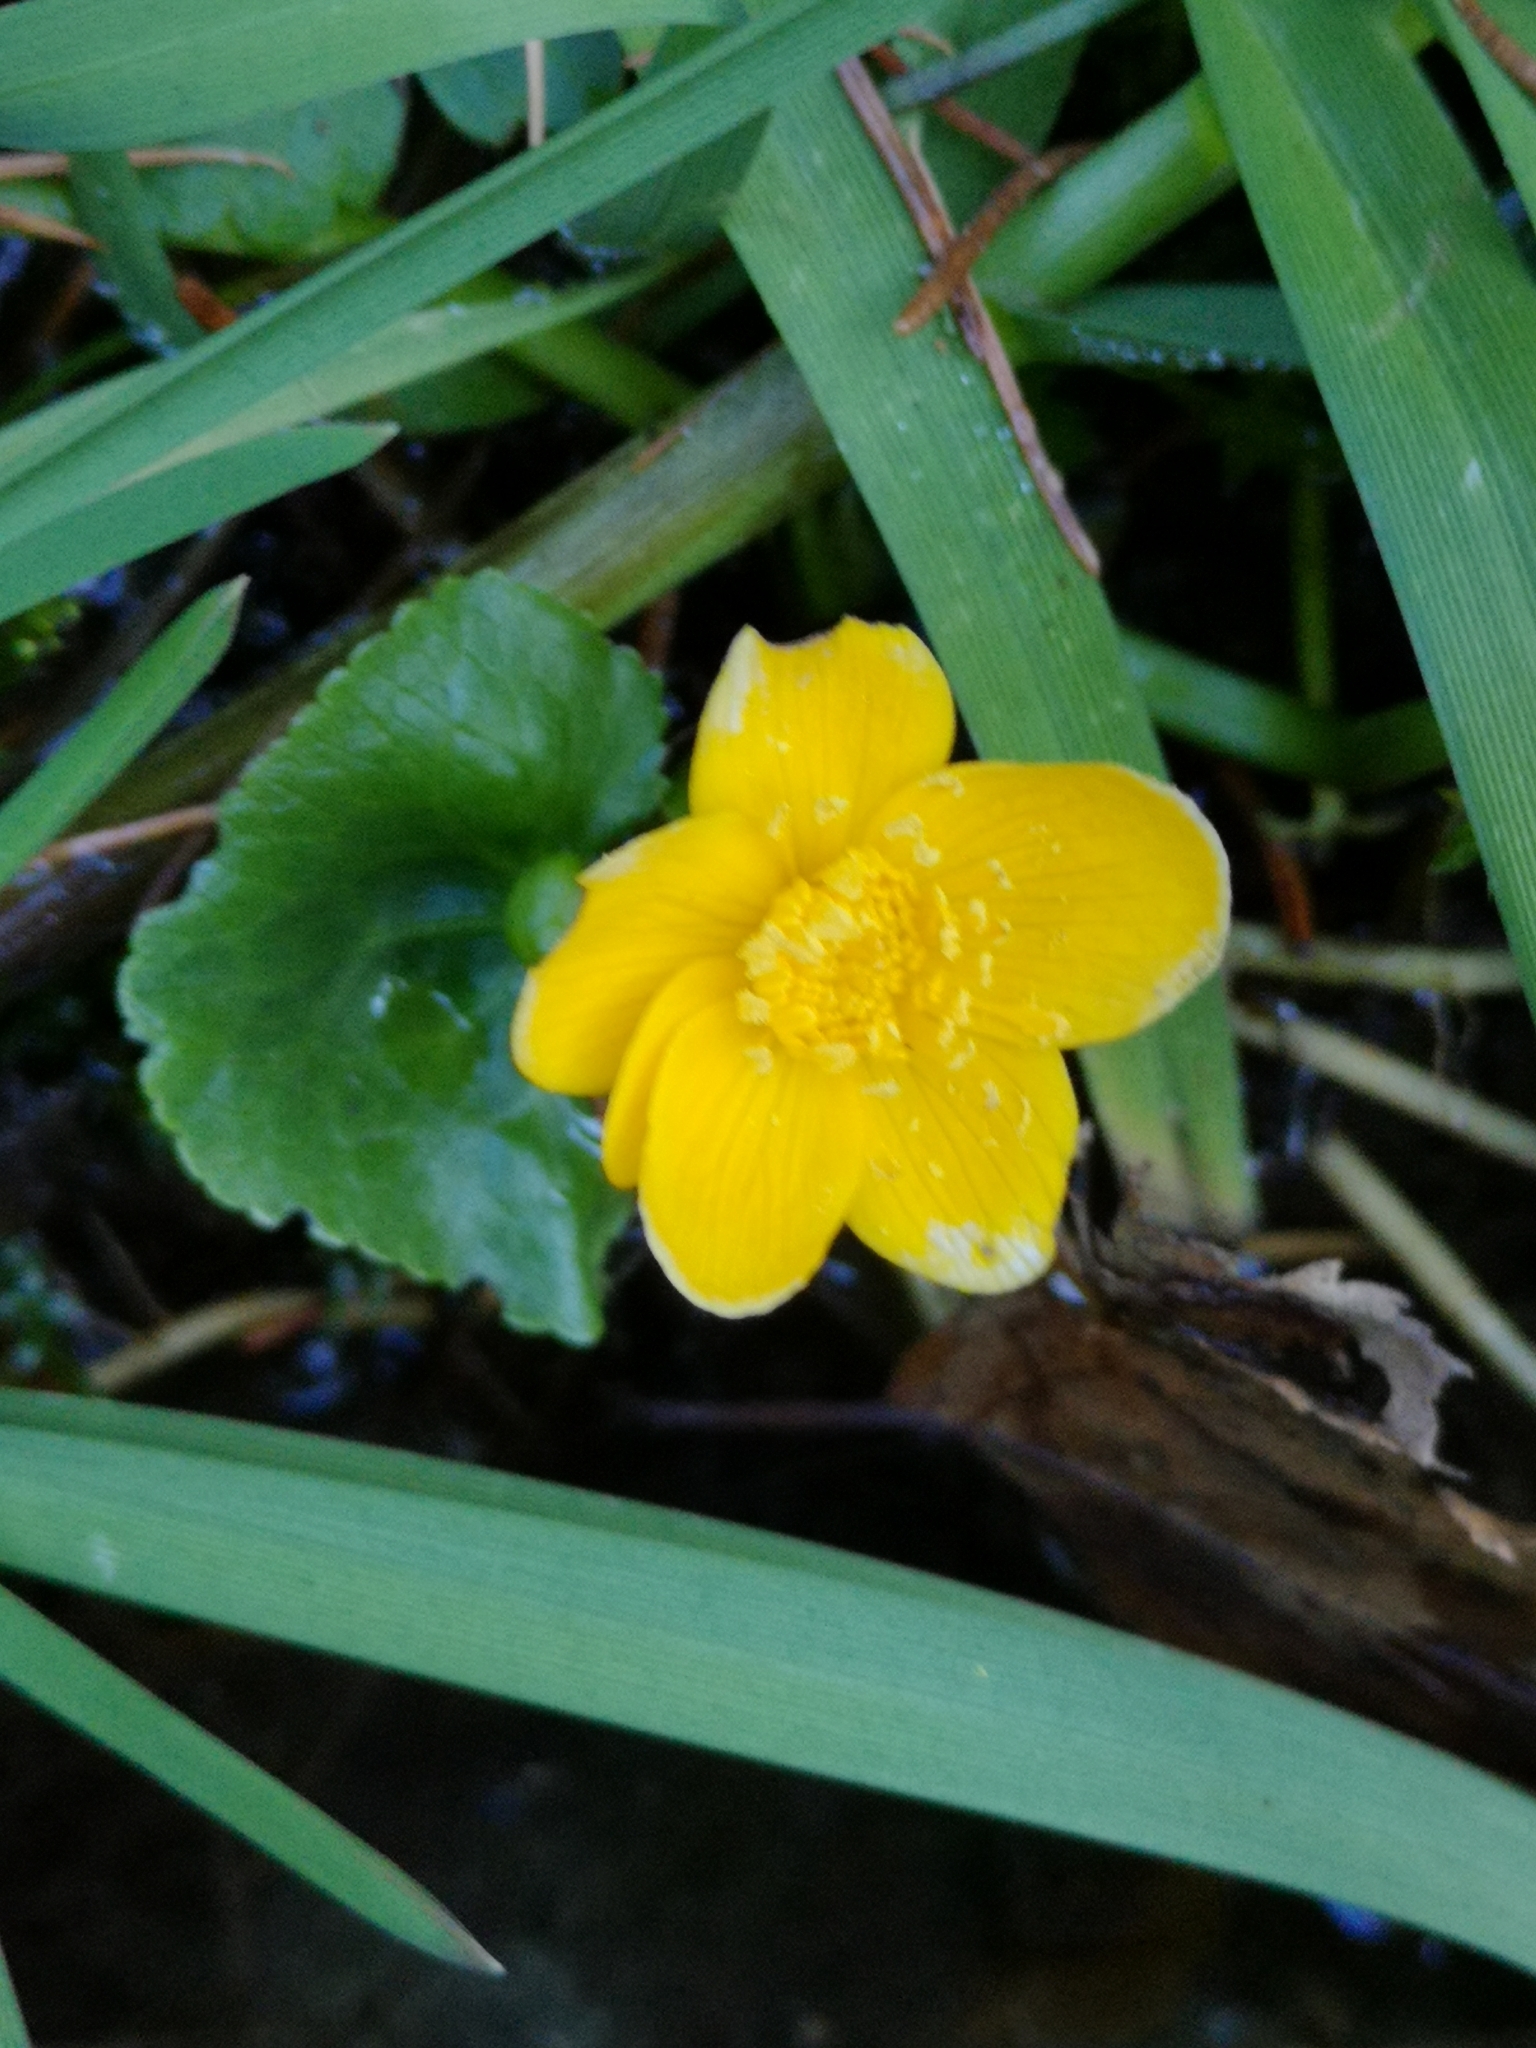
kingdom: Plantae
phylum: Tracheophyta
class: Magnoliopsida
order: Ranunculales
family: Ranunculaceae
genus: Caltha
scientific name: Caltha palustris
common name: Marsh marigold
